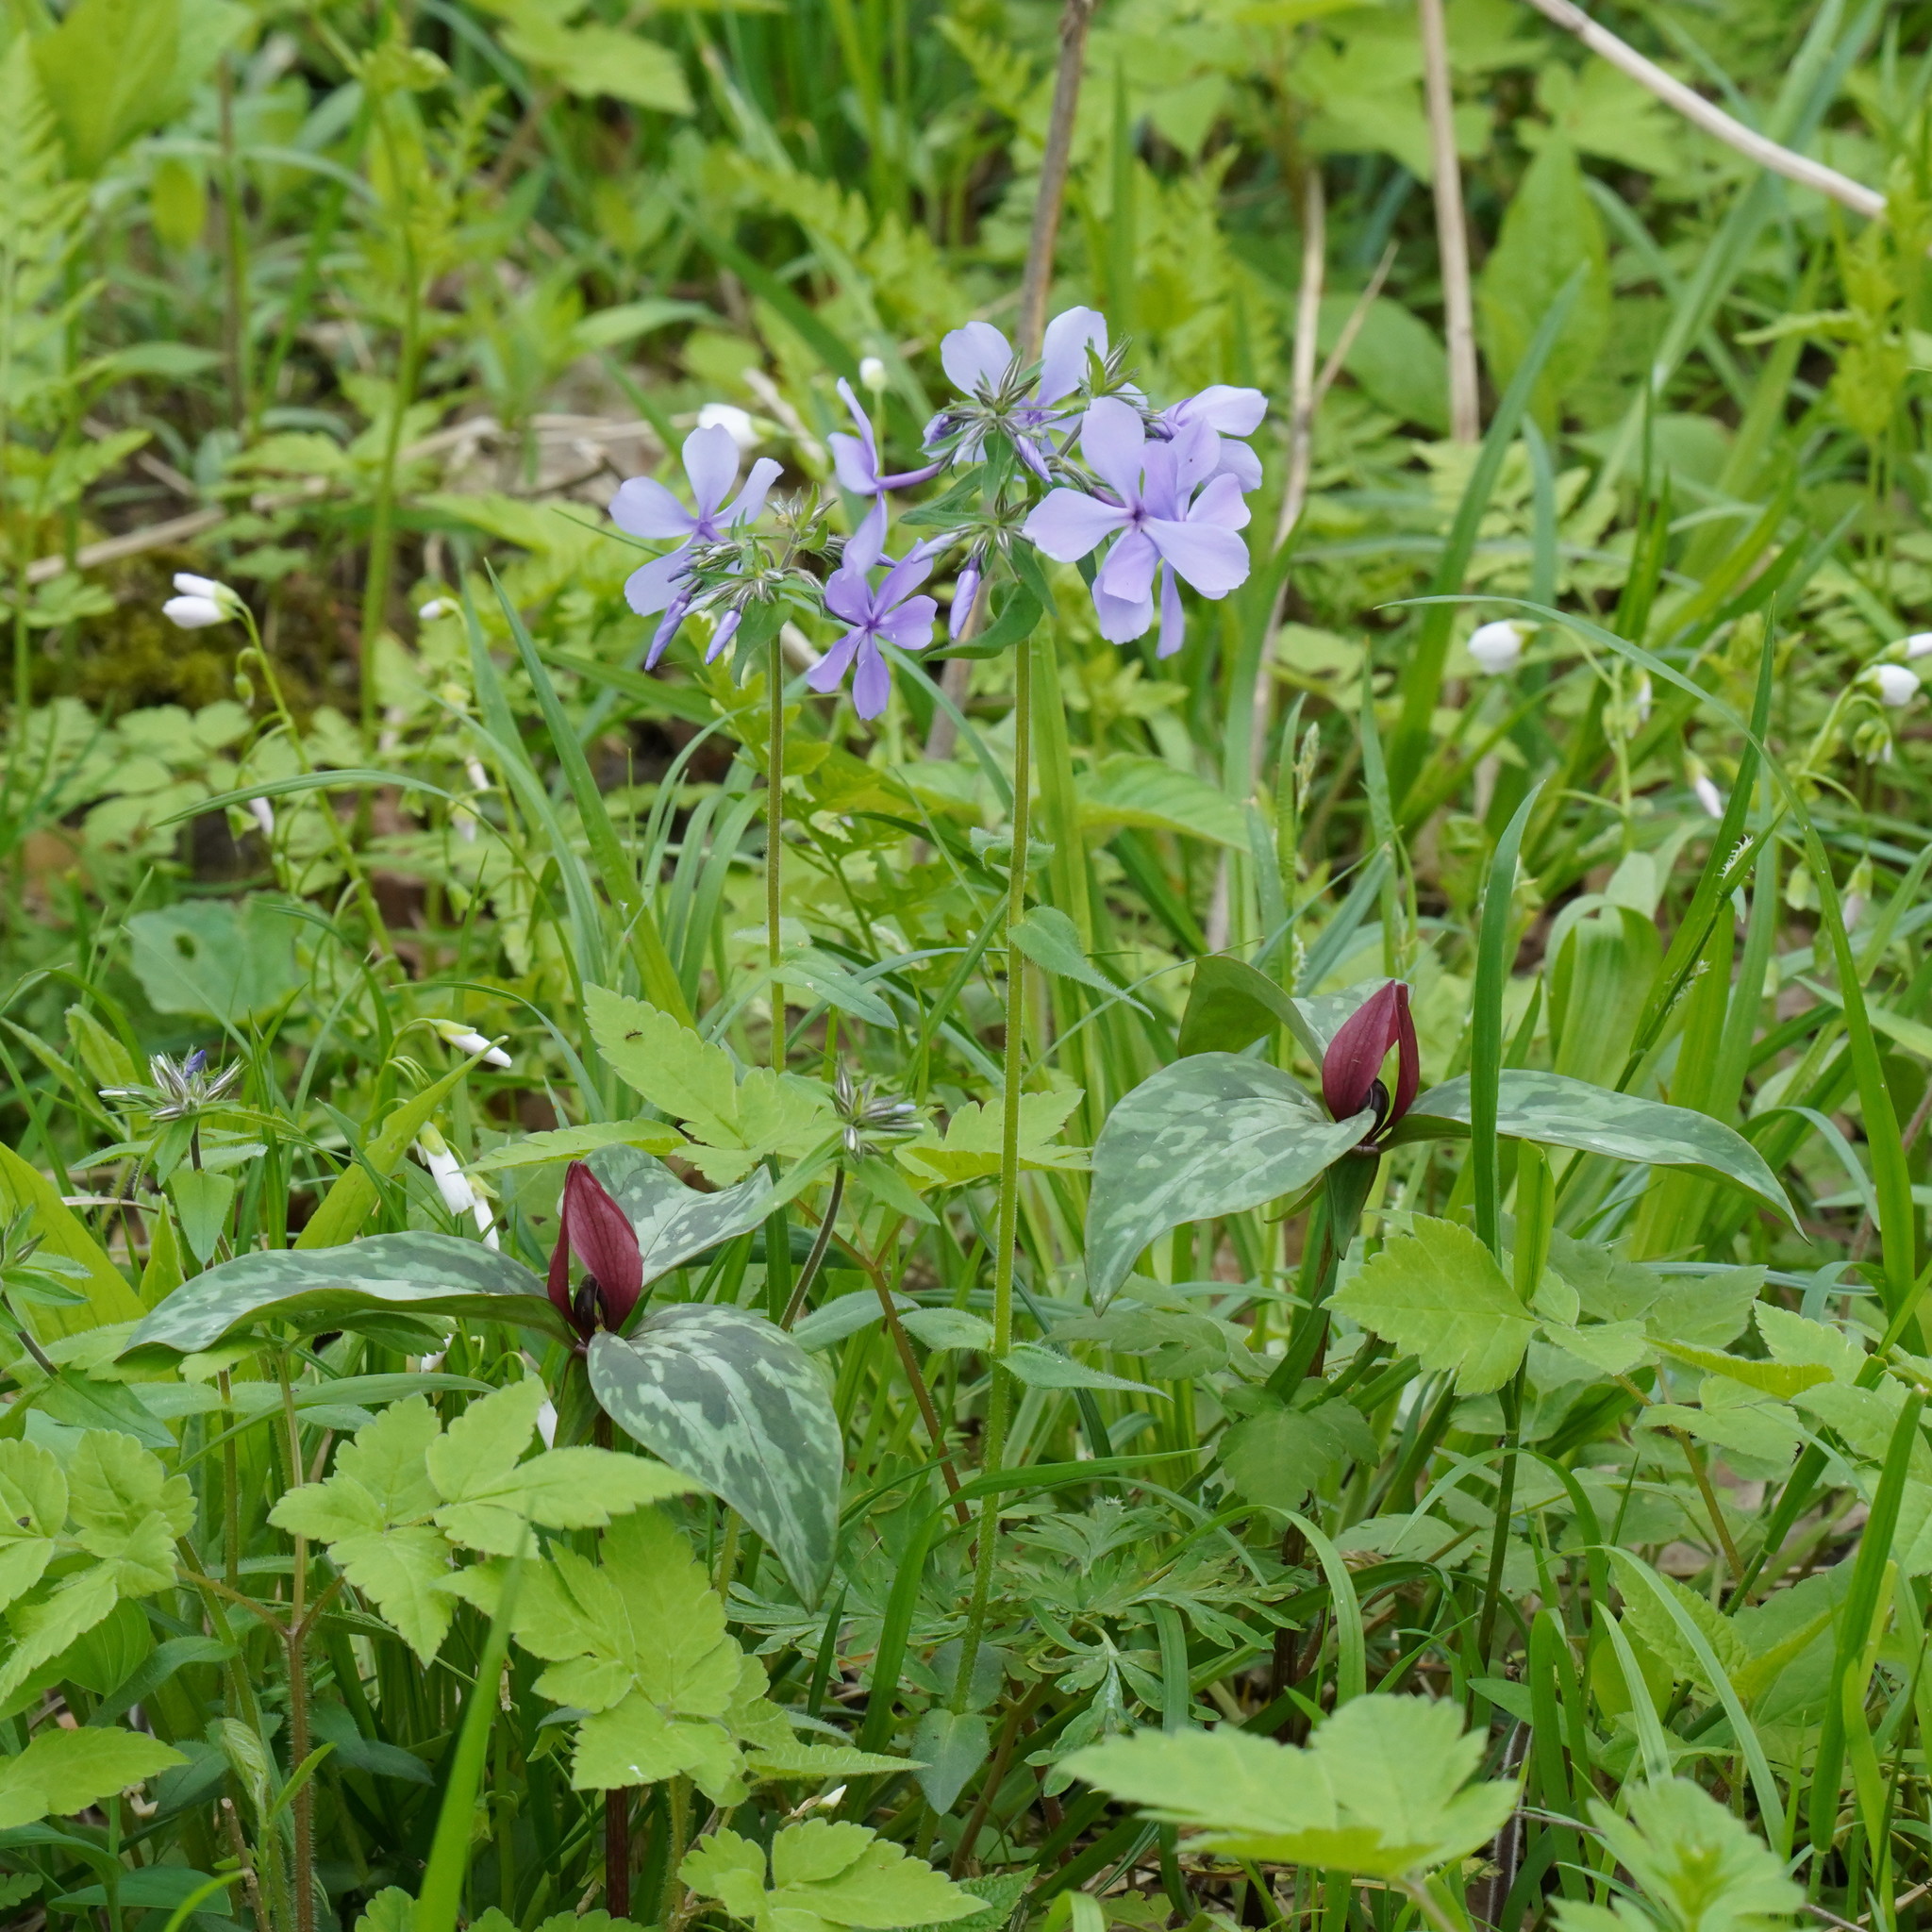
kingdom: Plantae
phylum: Tracheophyta
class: Liliopsida
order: Liliales
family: Melanthiaceae
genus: Trillium
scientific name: Trillium recurvatum
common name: Bloody butcher
